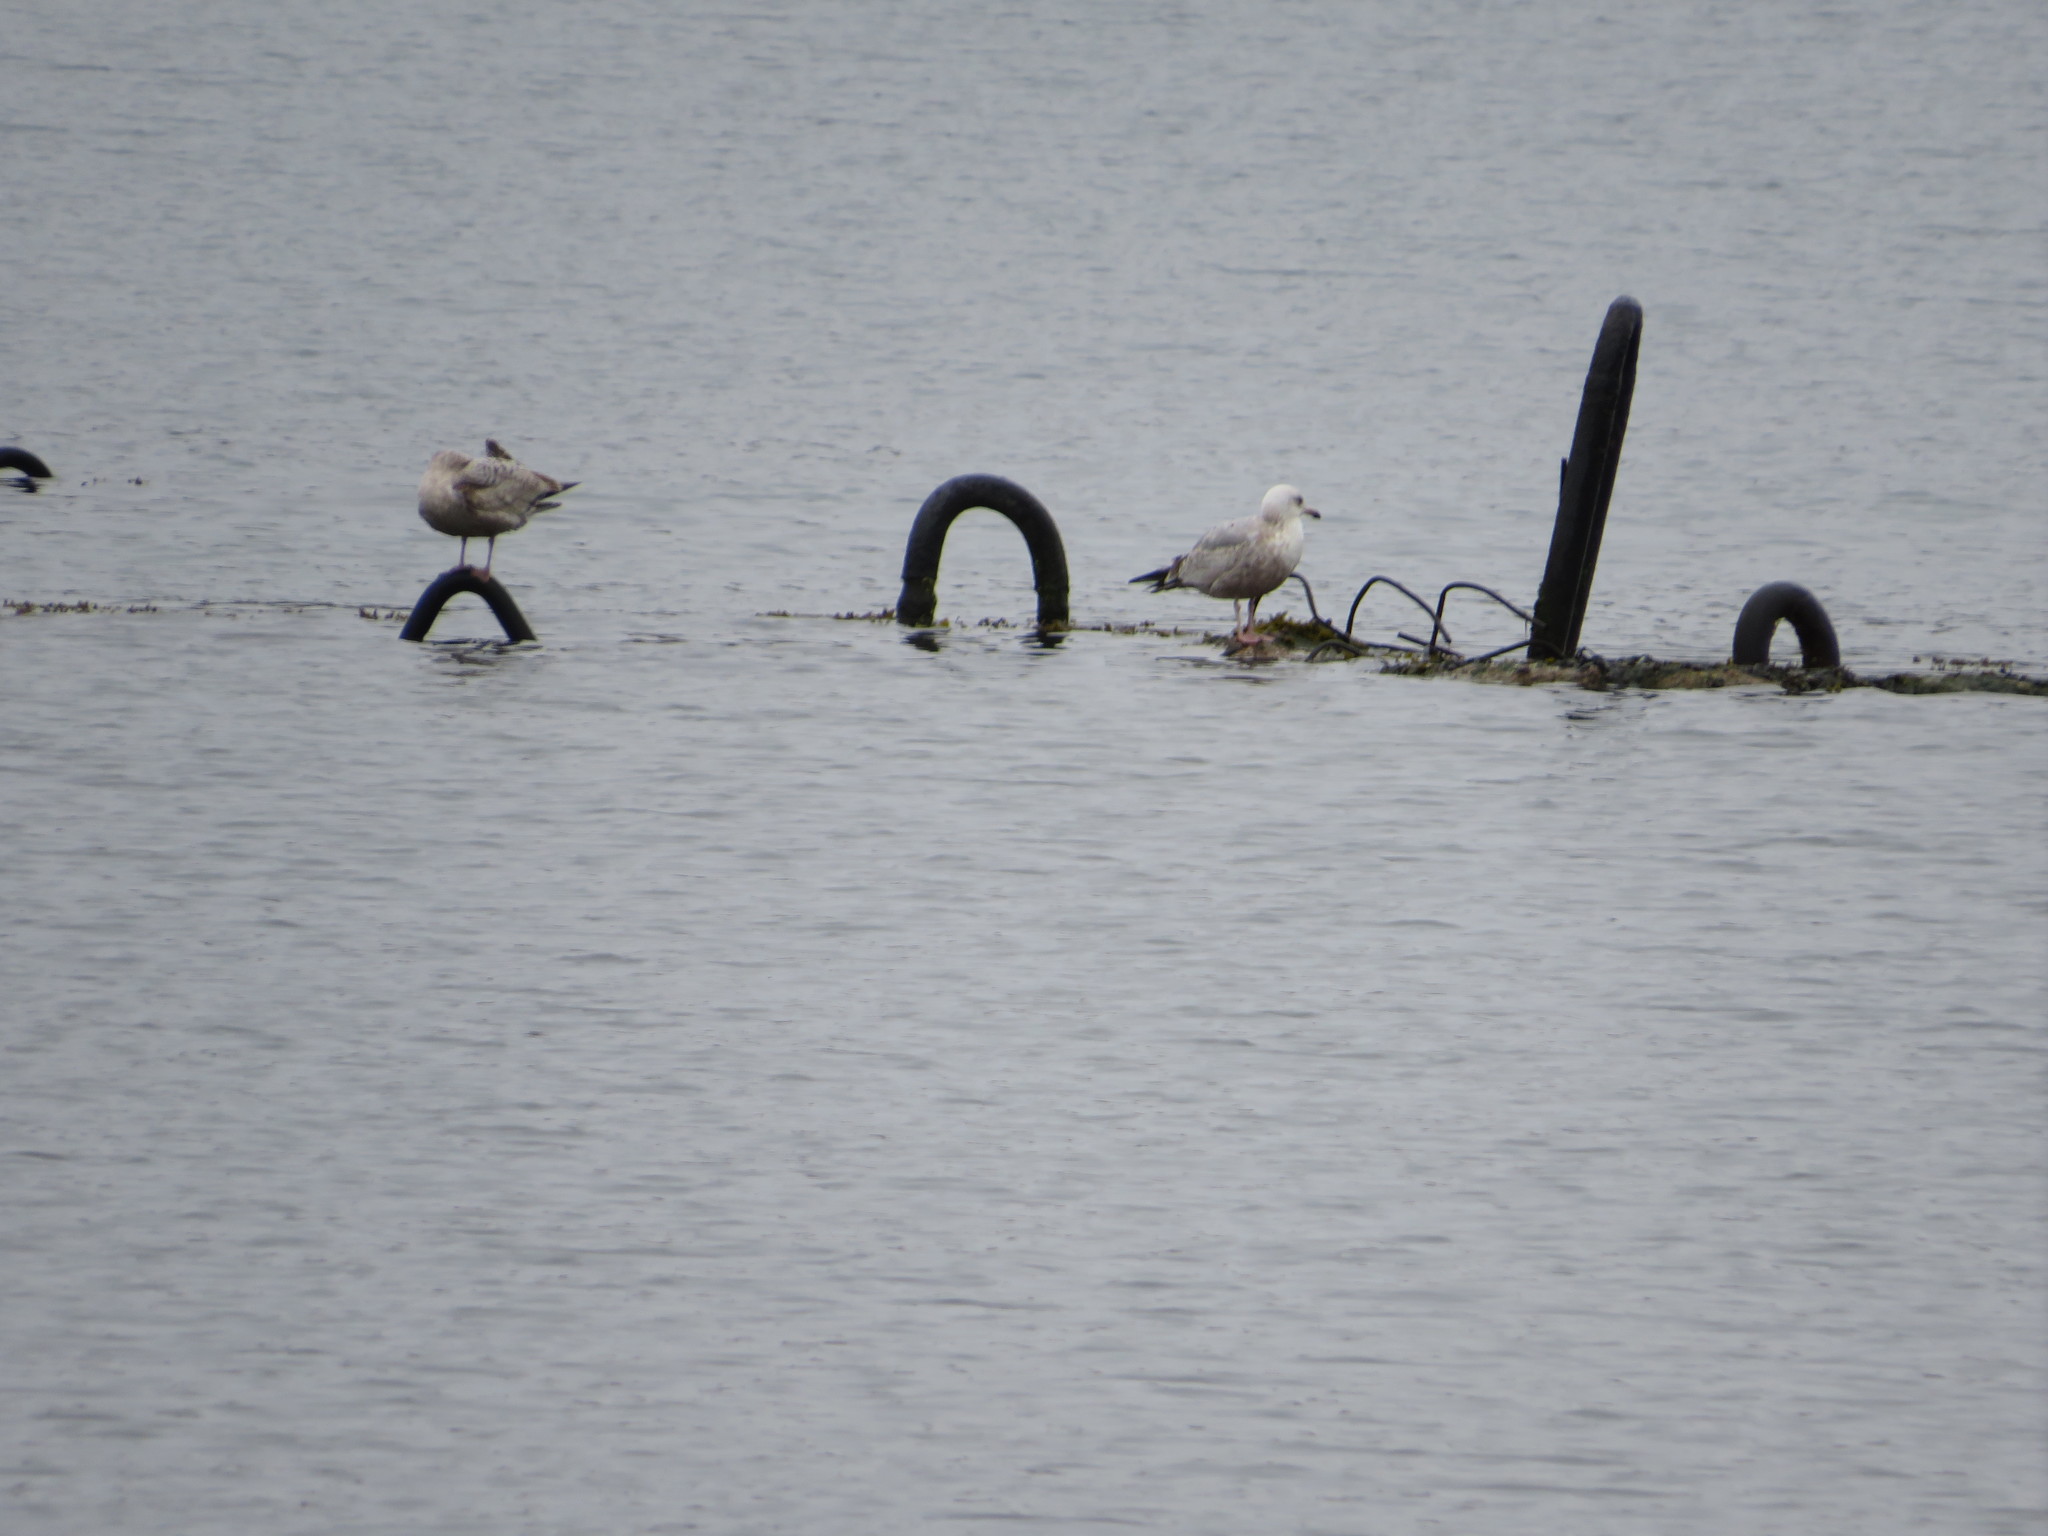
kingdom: Animalia
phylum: Chordata
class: Aves
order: Charadriiformes
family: Laridae
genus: Larus
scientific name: Larus argentatus
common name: Herring gull
